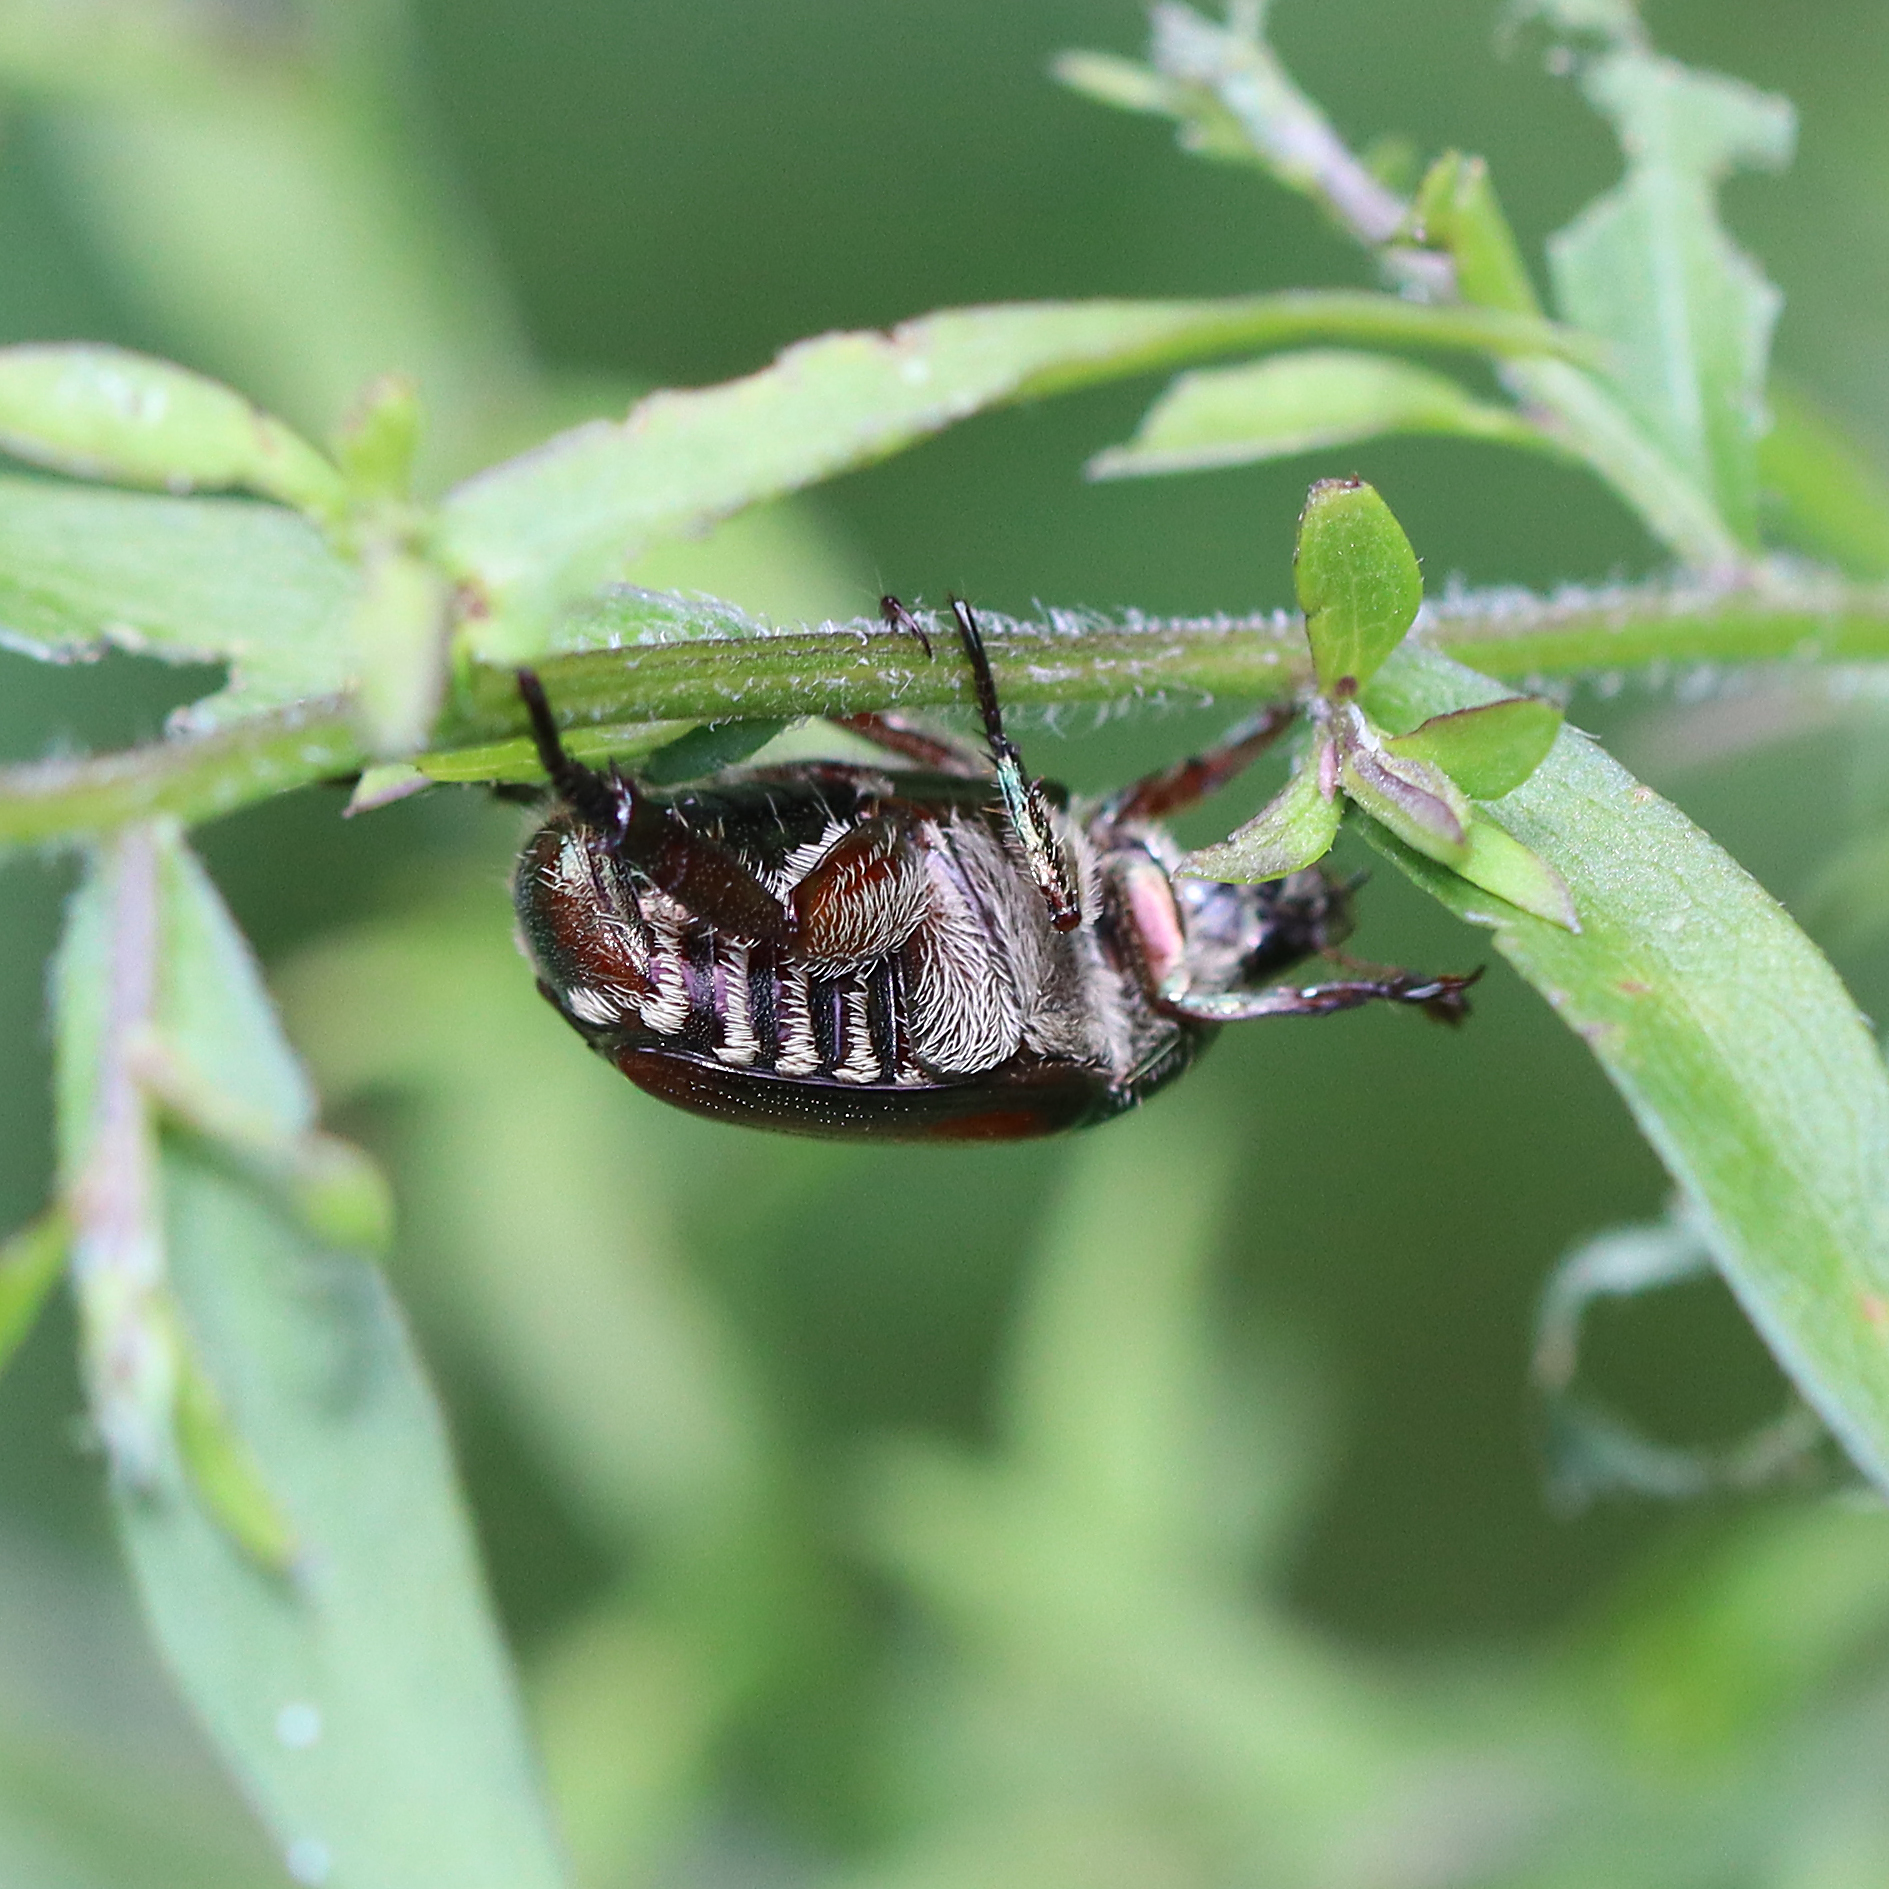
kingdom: Animalia
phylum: Arthropoda
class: Insecta
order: Coleoptera
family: Scarabaeidae
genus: Popillia
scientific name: Popillia japonica
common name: Japanese beetle
